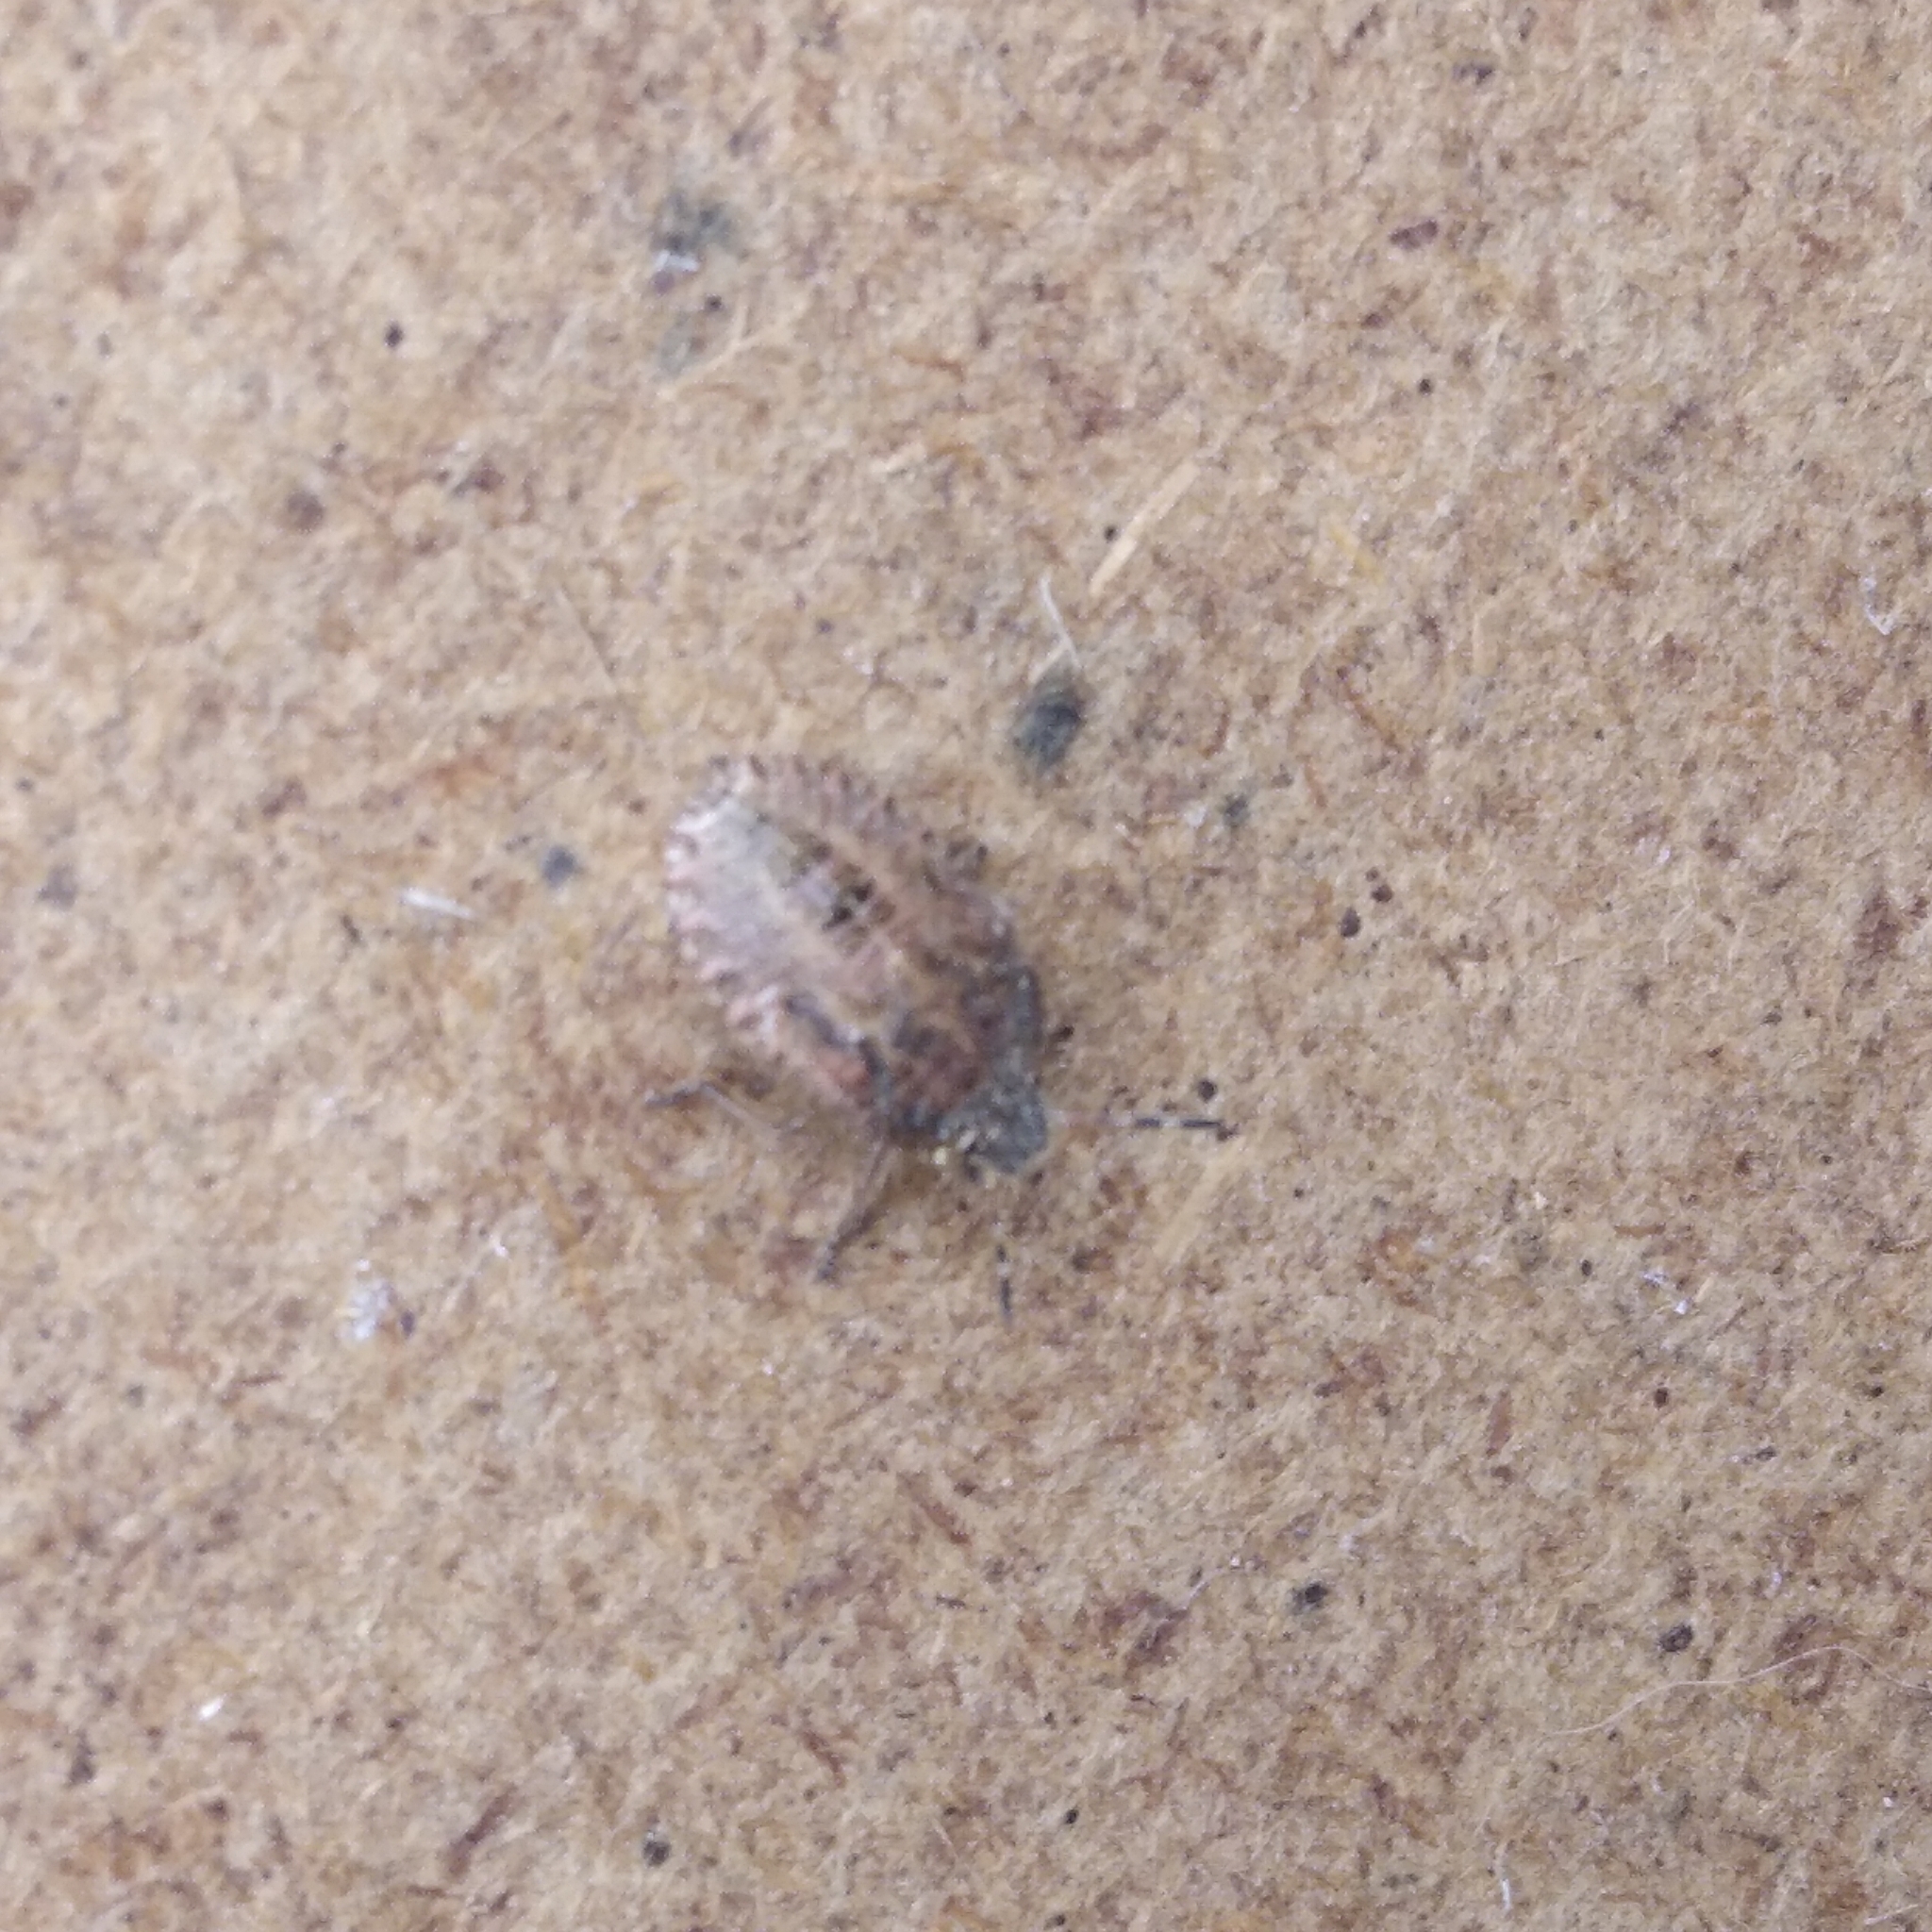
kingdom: Animalia
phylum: Arthropoda
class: Insecta
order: Hemiptera
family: Pentatomidae
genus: Dolycoris
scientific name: Dolycoris baccarum
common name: Sloe bug
